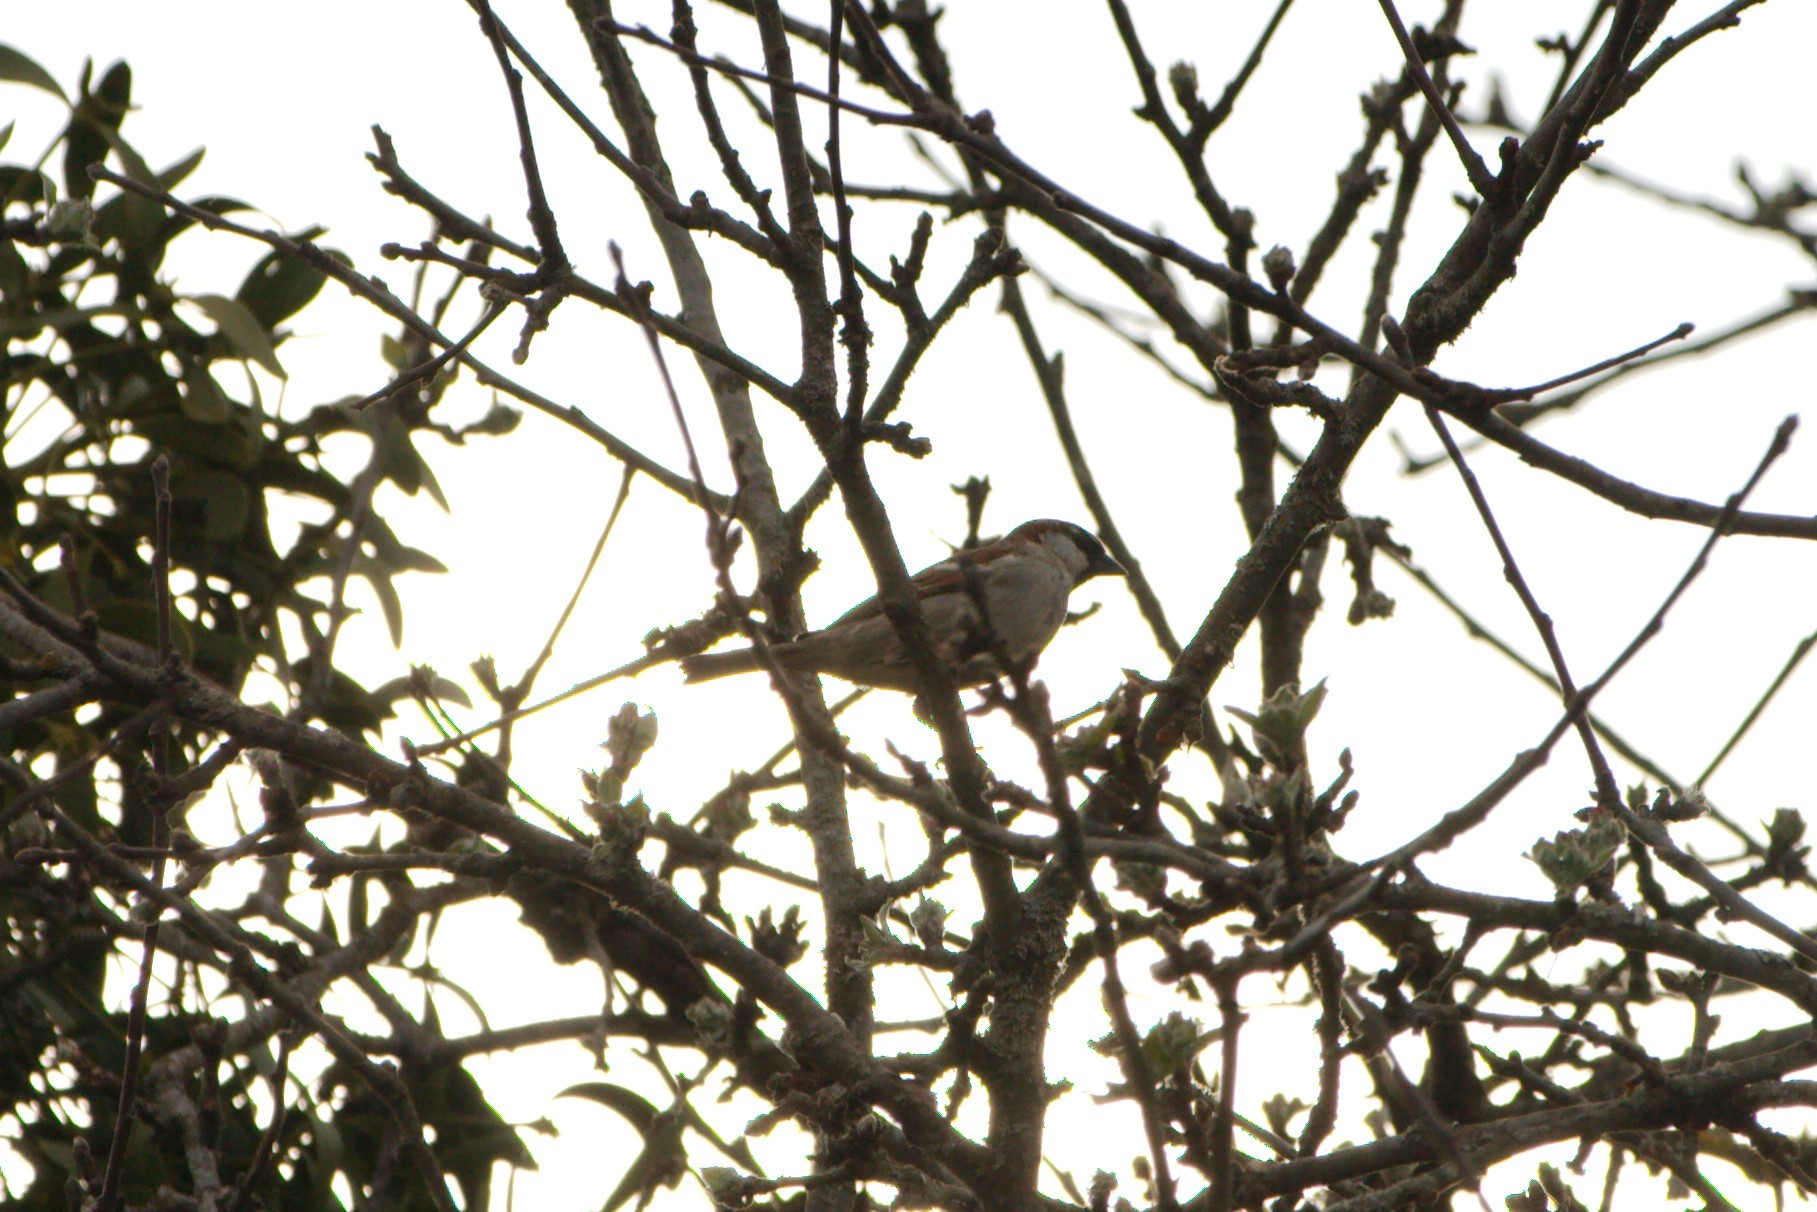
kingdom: Animalia
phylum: Chordata
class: Aves
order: Passeriformes
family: Passeridae
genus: Passer
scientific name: Passer domesticus
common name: House sparrow
